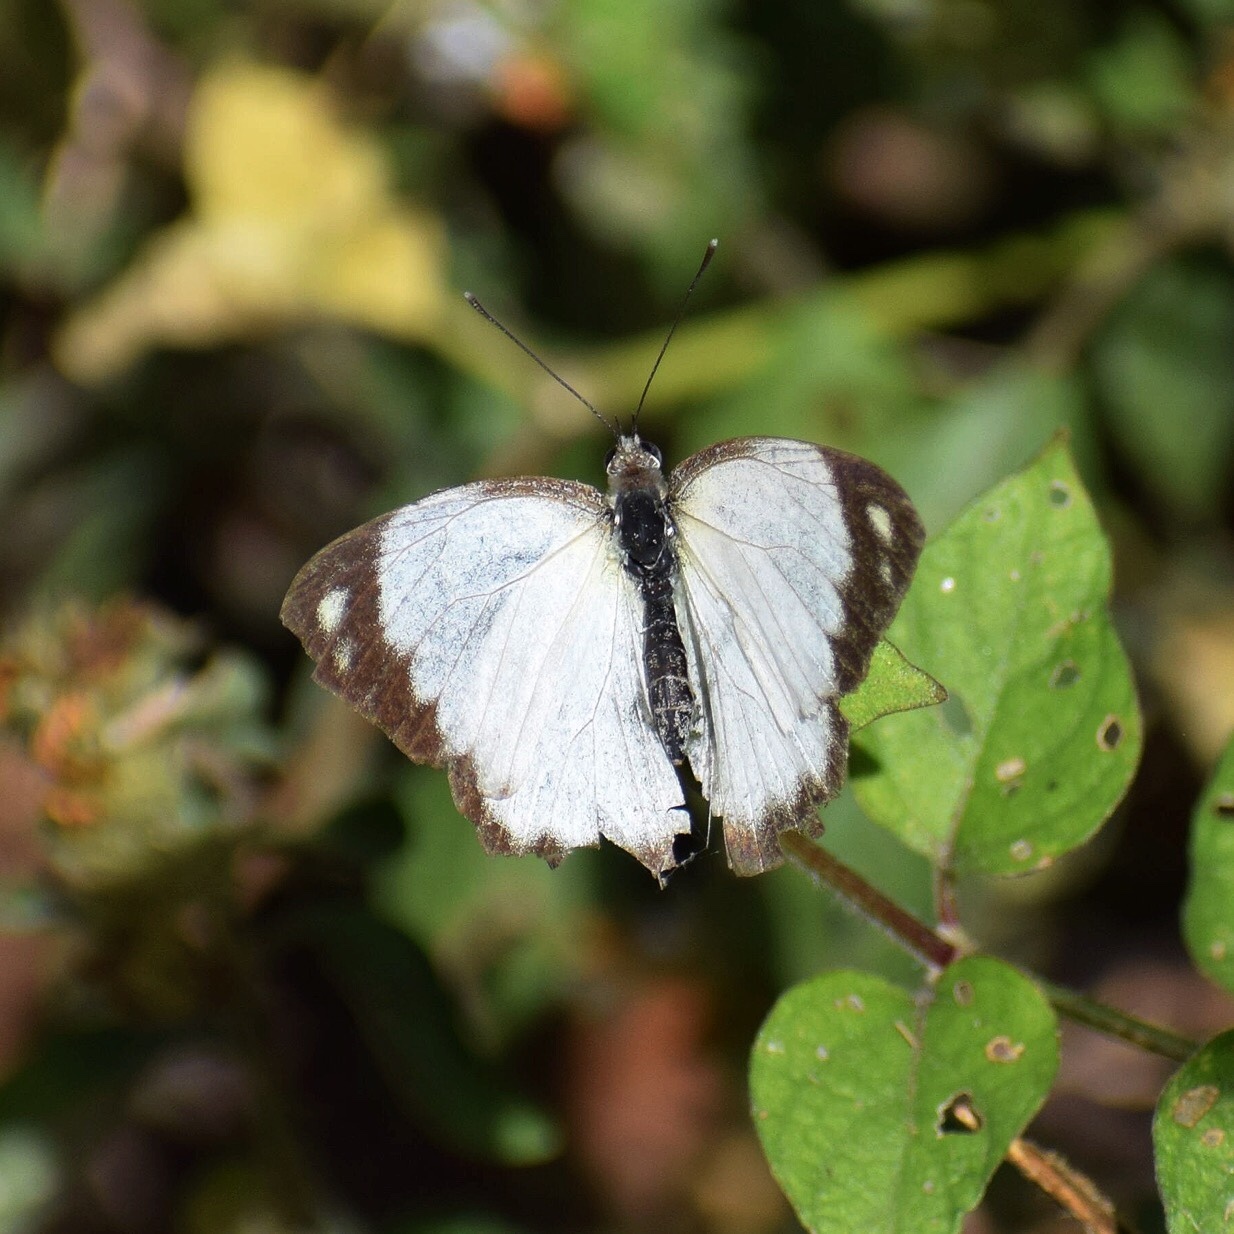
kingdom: Animalia
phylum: Arthropoda
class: Insecta
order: Lepidoptera
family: Pieridae
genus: Glutophrissa
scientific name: Glutophrissa epaphia
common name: African albatross
